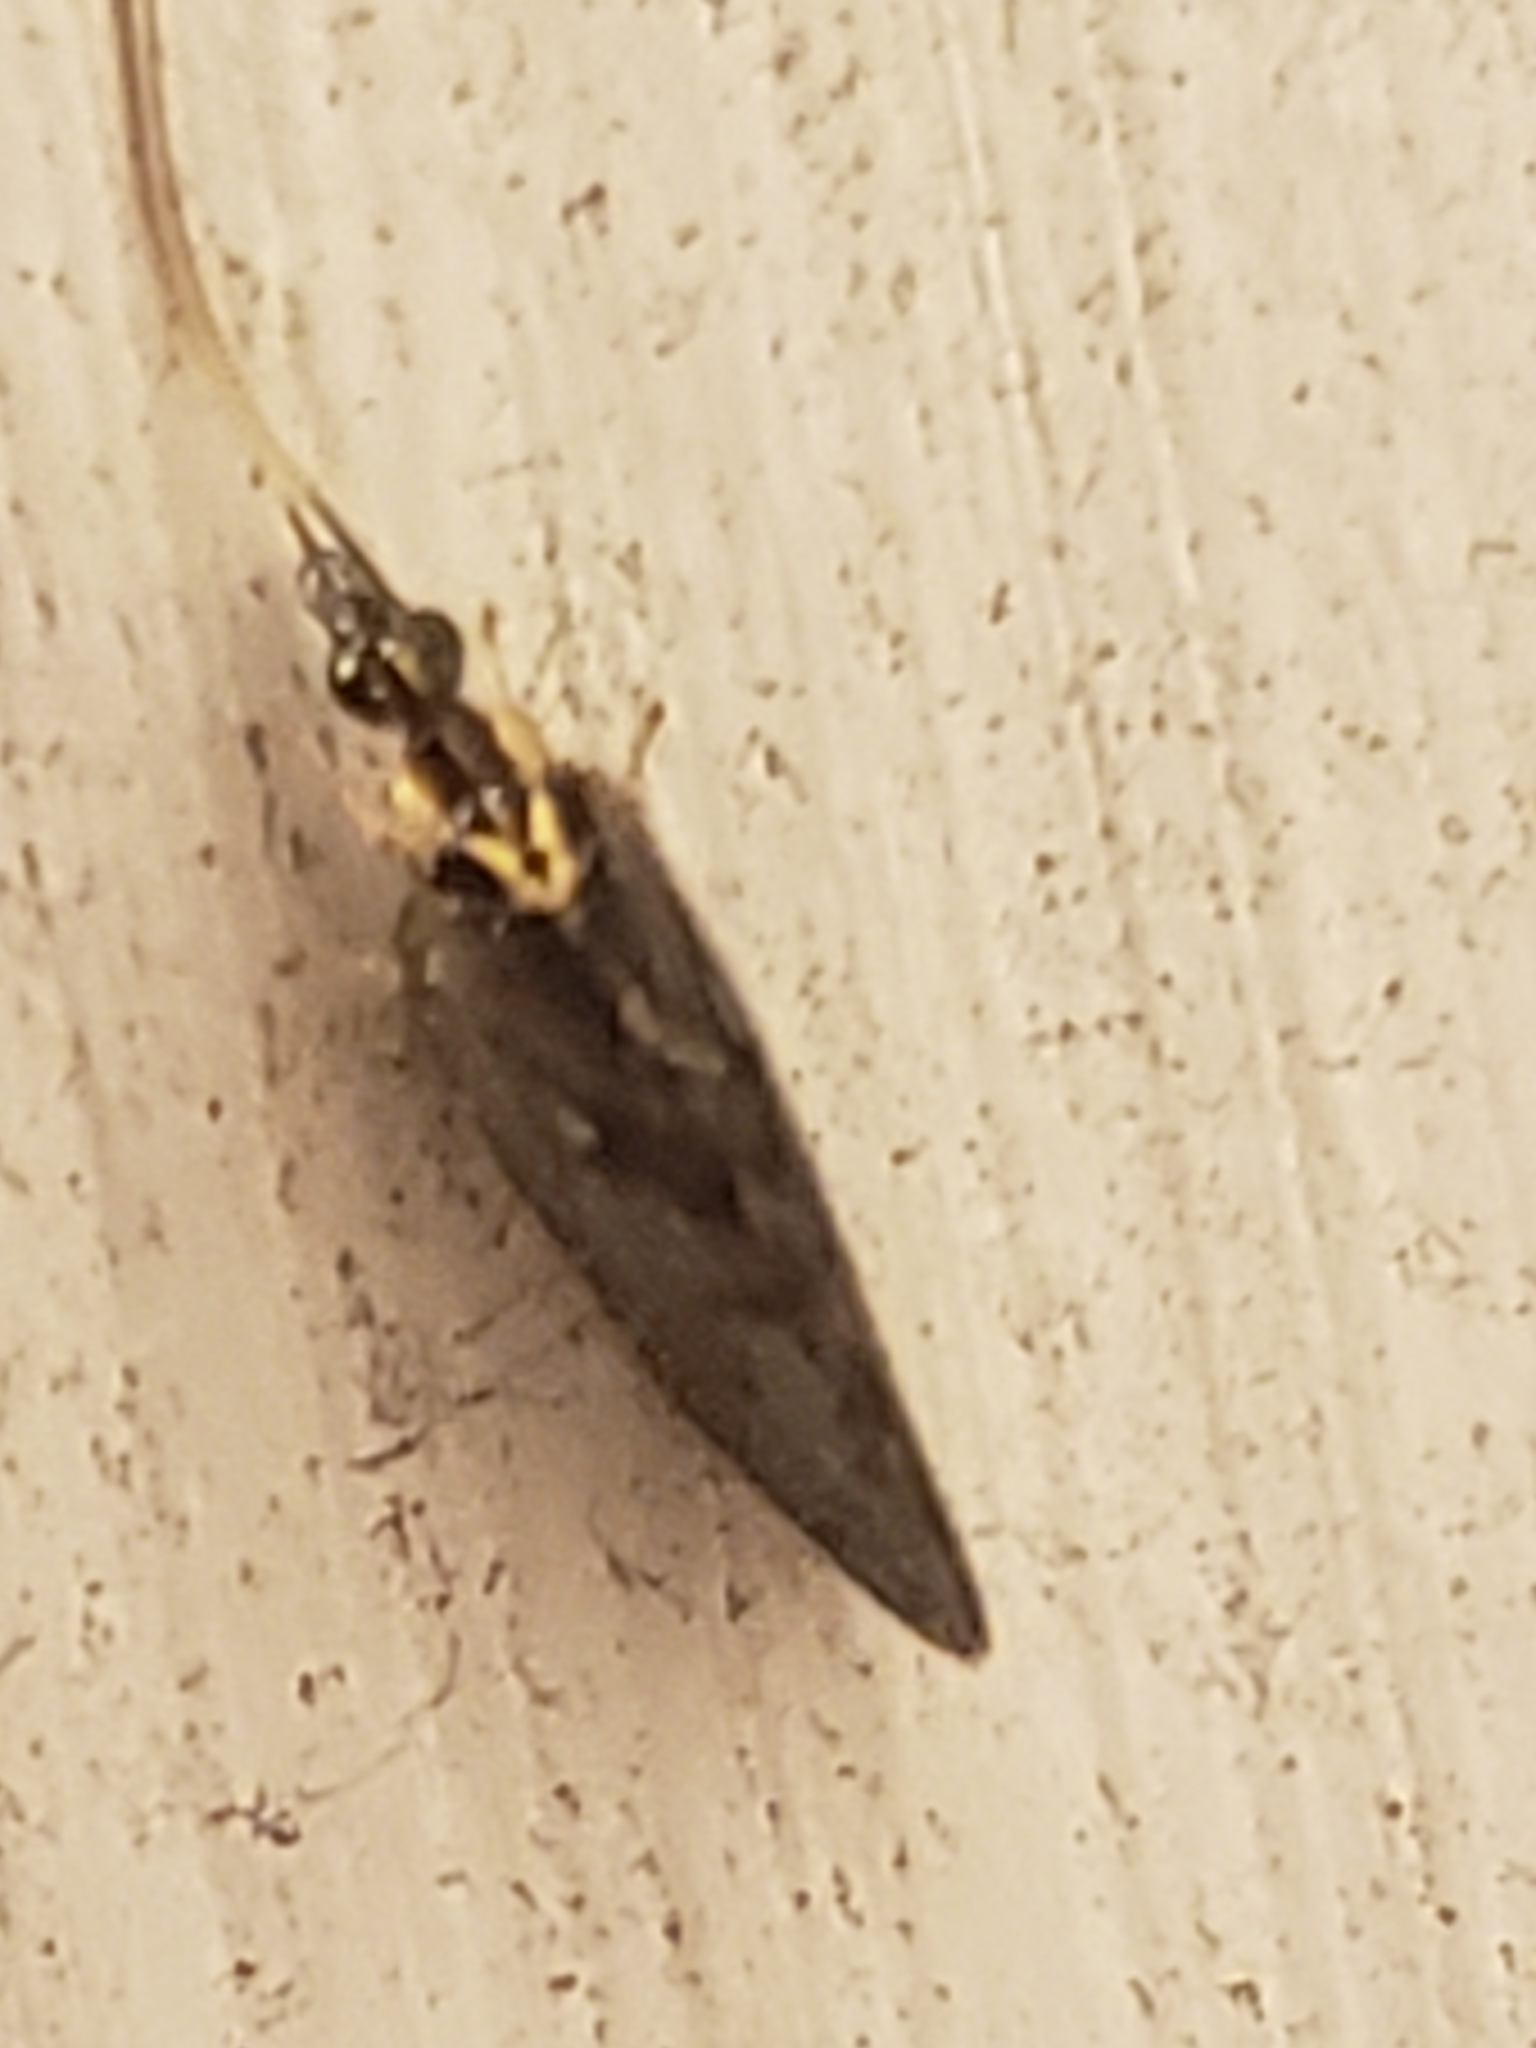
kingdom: Animalia
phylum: Arthropoda
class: Insecta
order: Neuroptera
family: Hemerobiidae
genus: Sympherobius
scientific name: Sympherobius occidentalis
